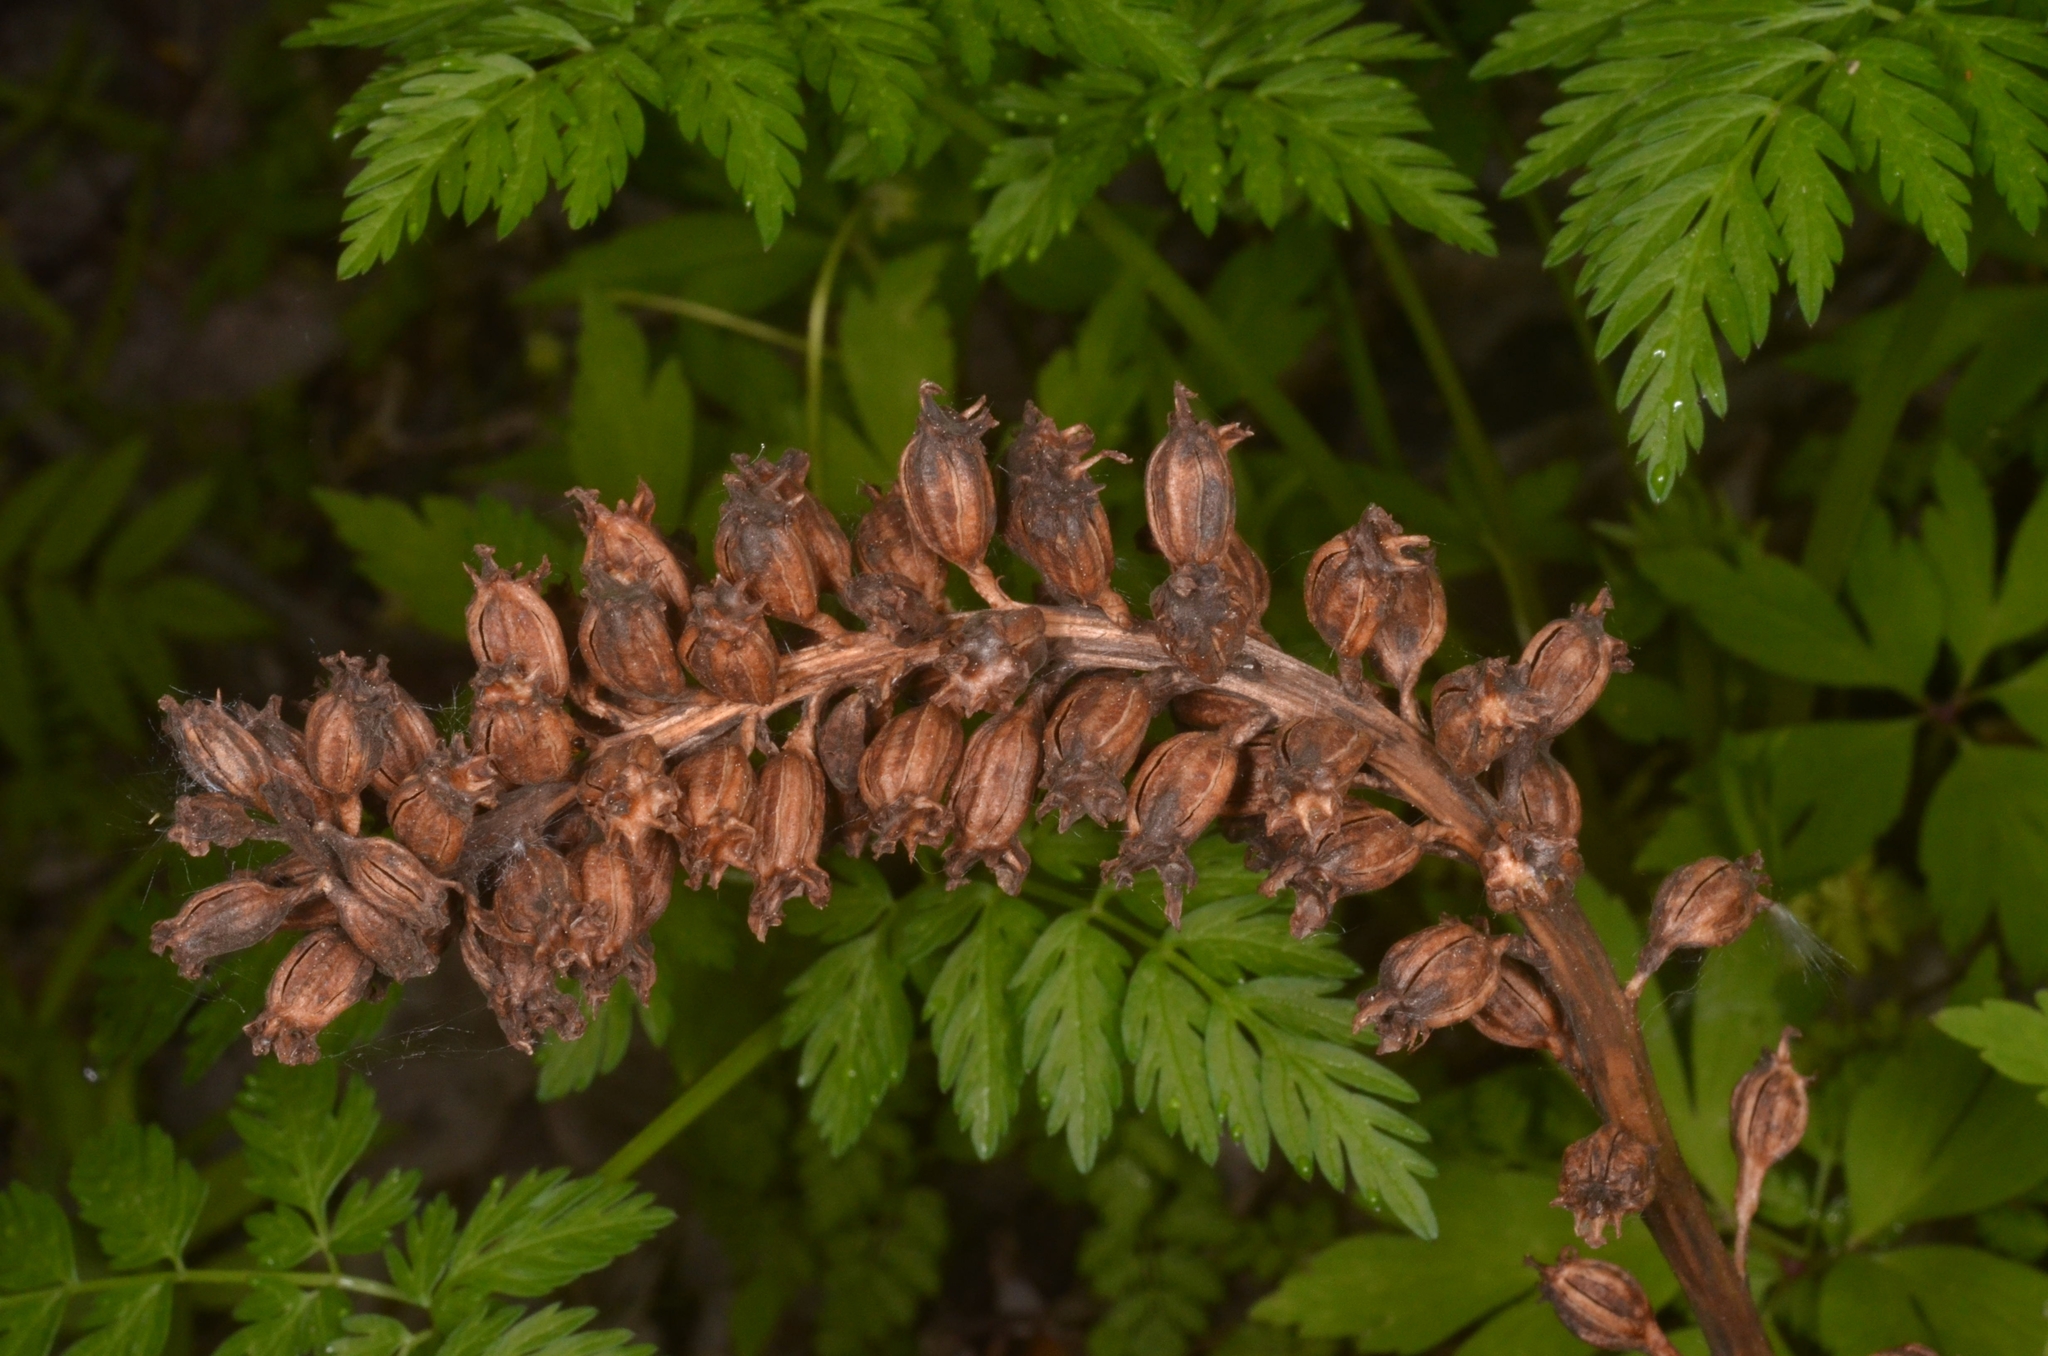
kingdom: Plantae
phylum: Tracheophyta
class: Liliopsida
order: Asparagales
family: Orchidaceae
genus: Neottia
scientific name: Neottia nidus-avis
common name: Bird's-nest orchid
